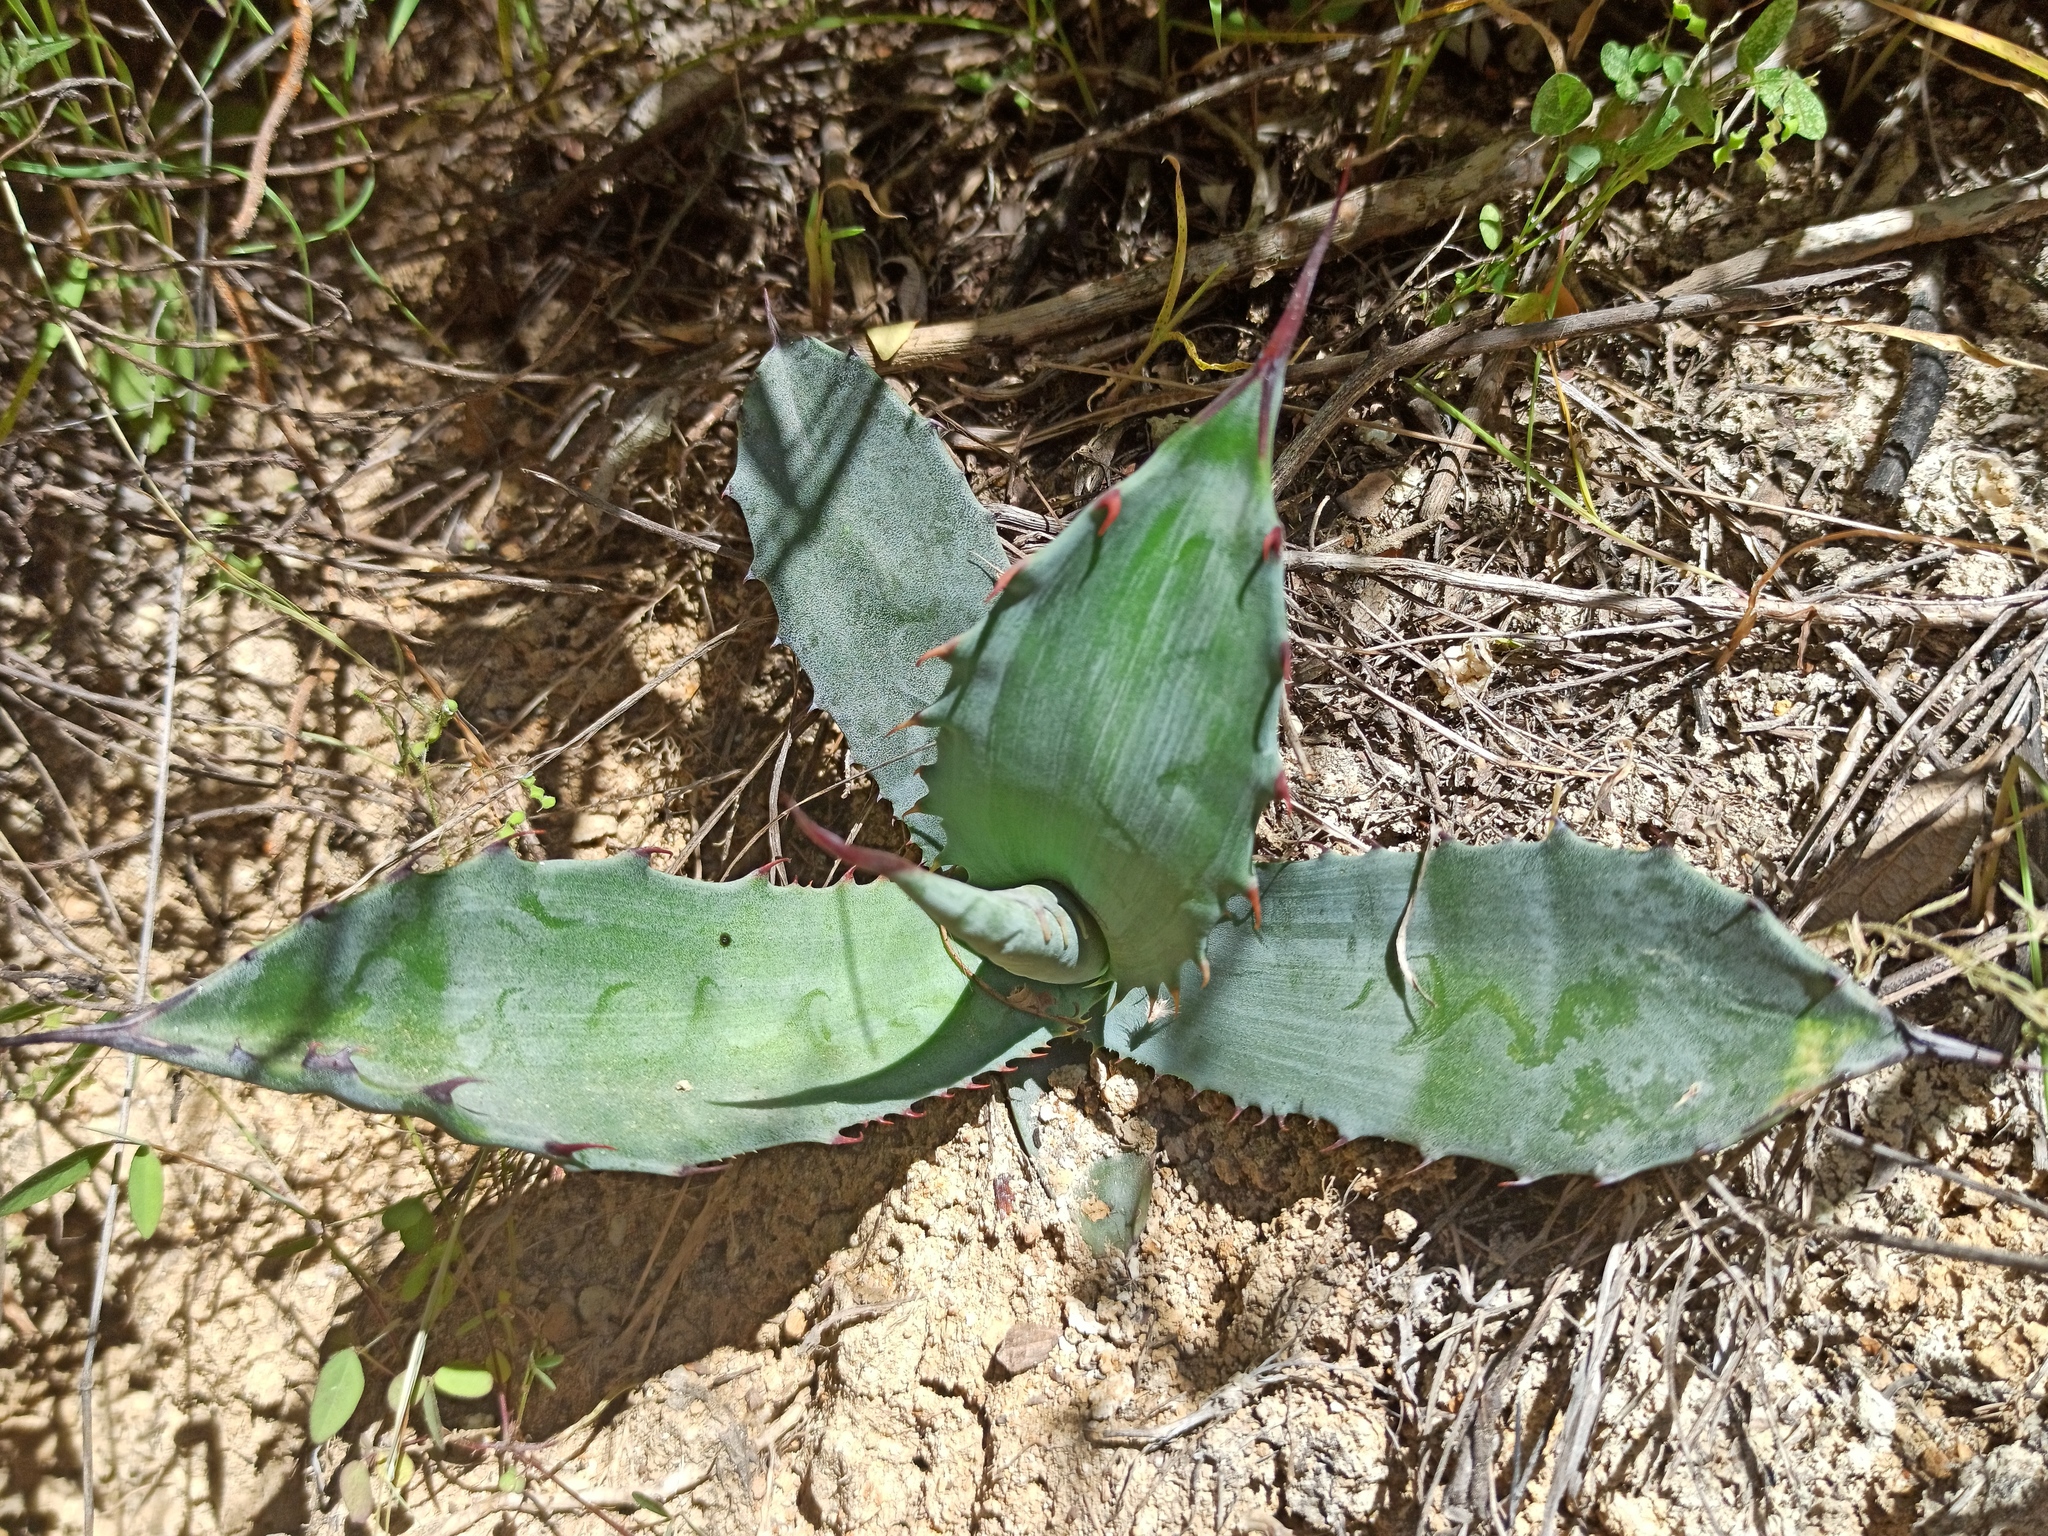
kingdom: Plantae
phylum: Tracheophyta
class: Liliopsida
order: Asparagales
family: Asparagaceae
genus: Agave
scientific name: Agave salmiana
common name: Pulque agave
